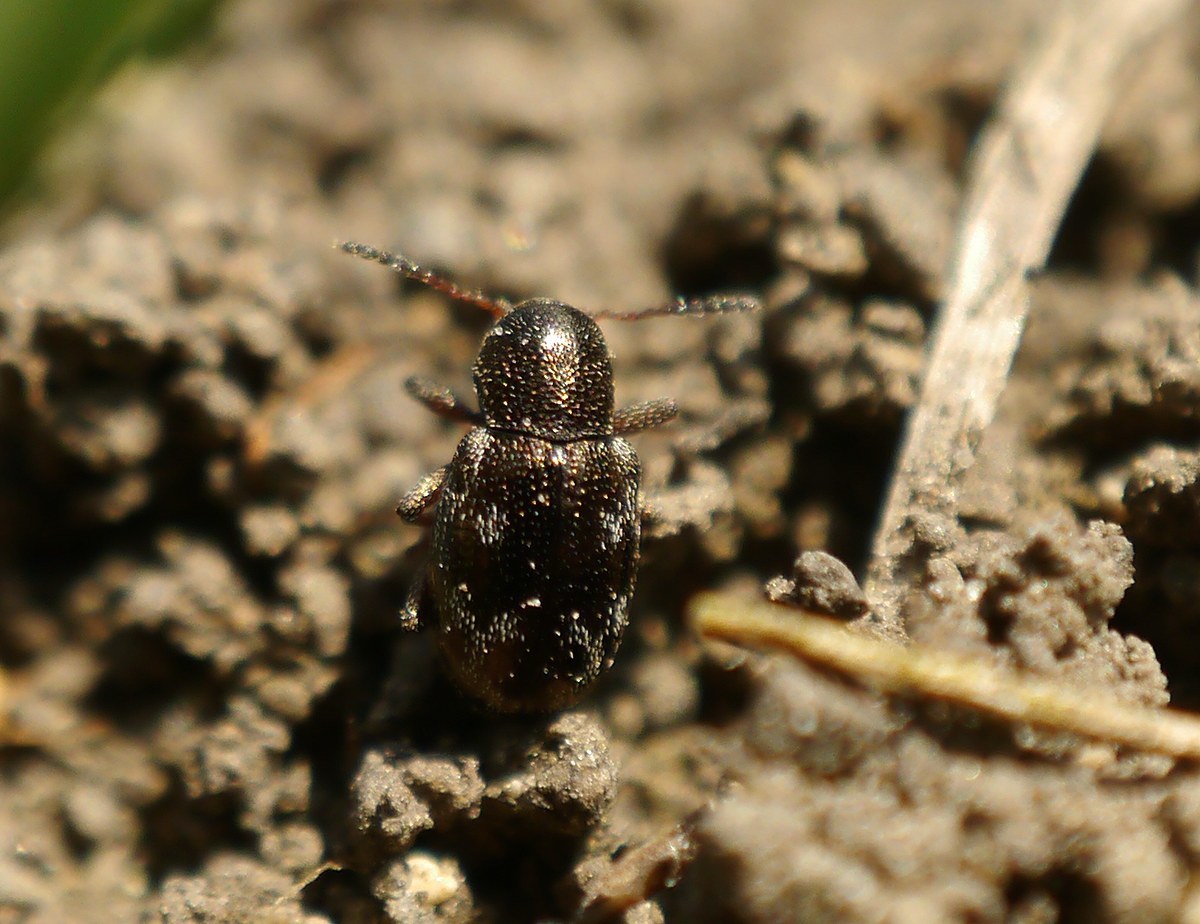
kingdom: Animalia
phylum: Arthropoda
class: Insecta
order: Coleoptera
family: Chrysomelidae
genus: Pachnephorus
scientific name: Pachnephorus villosus
